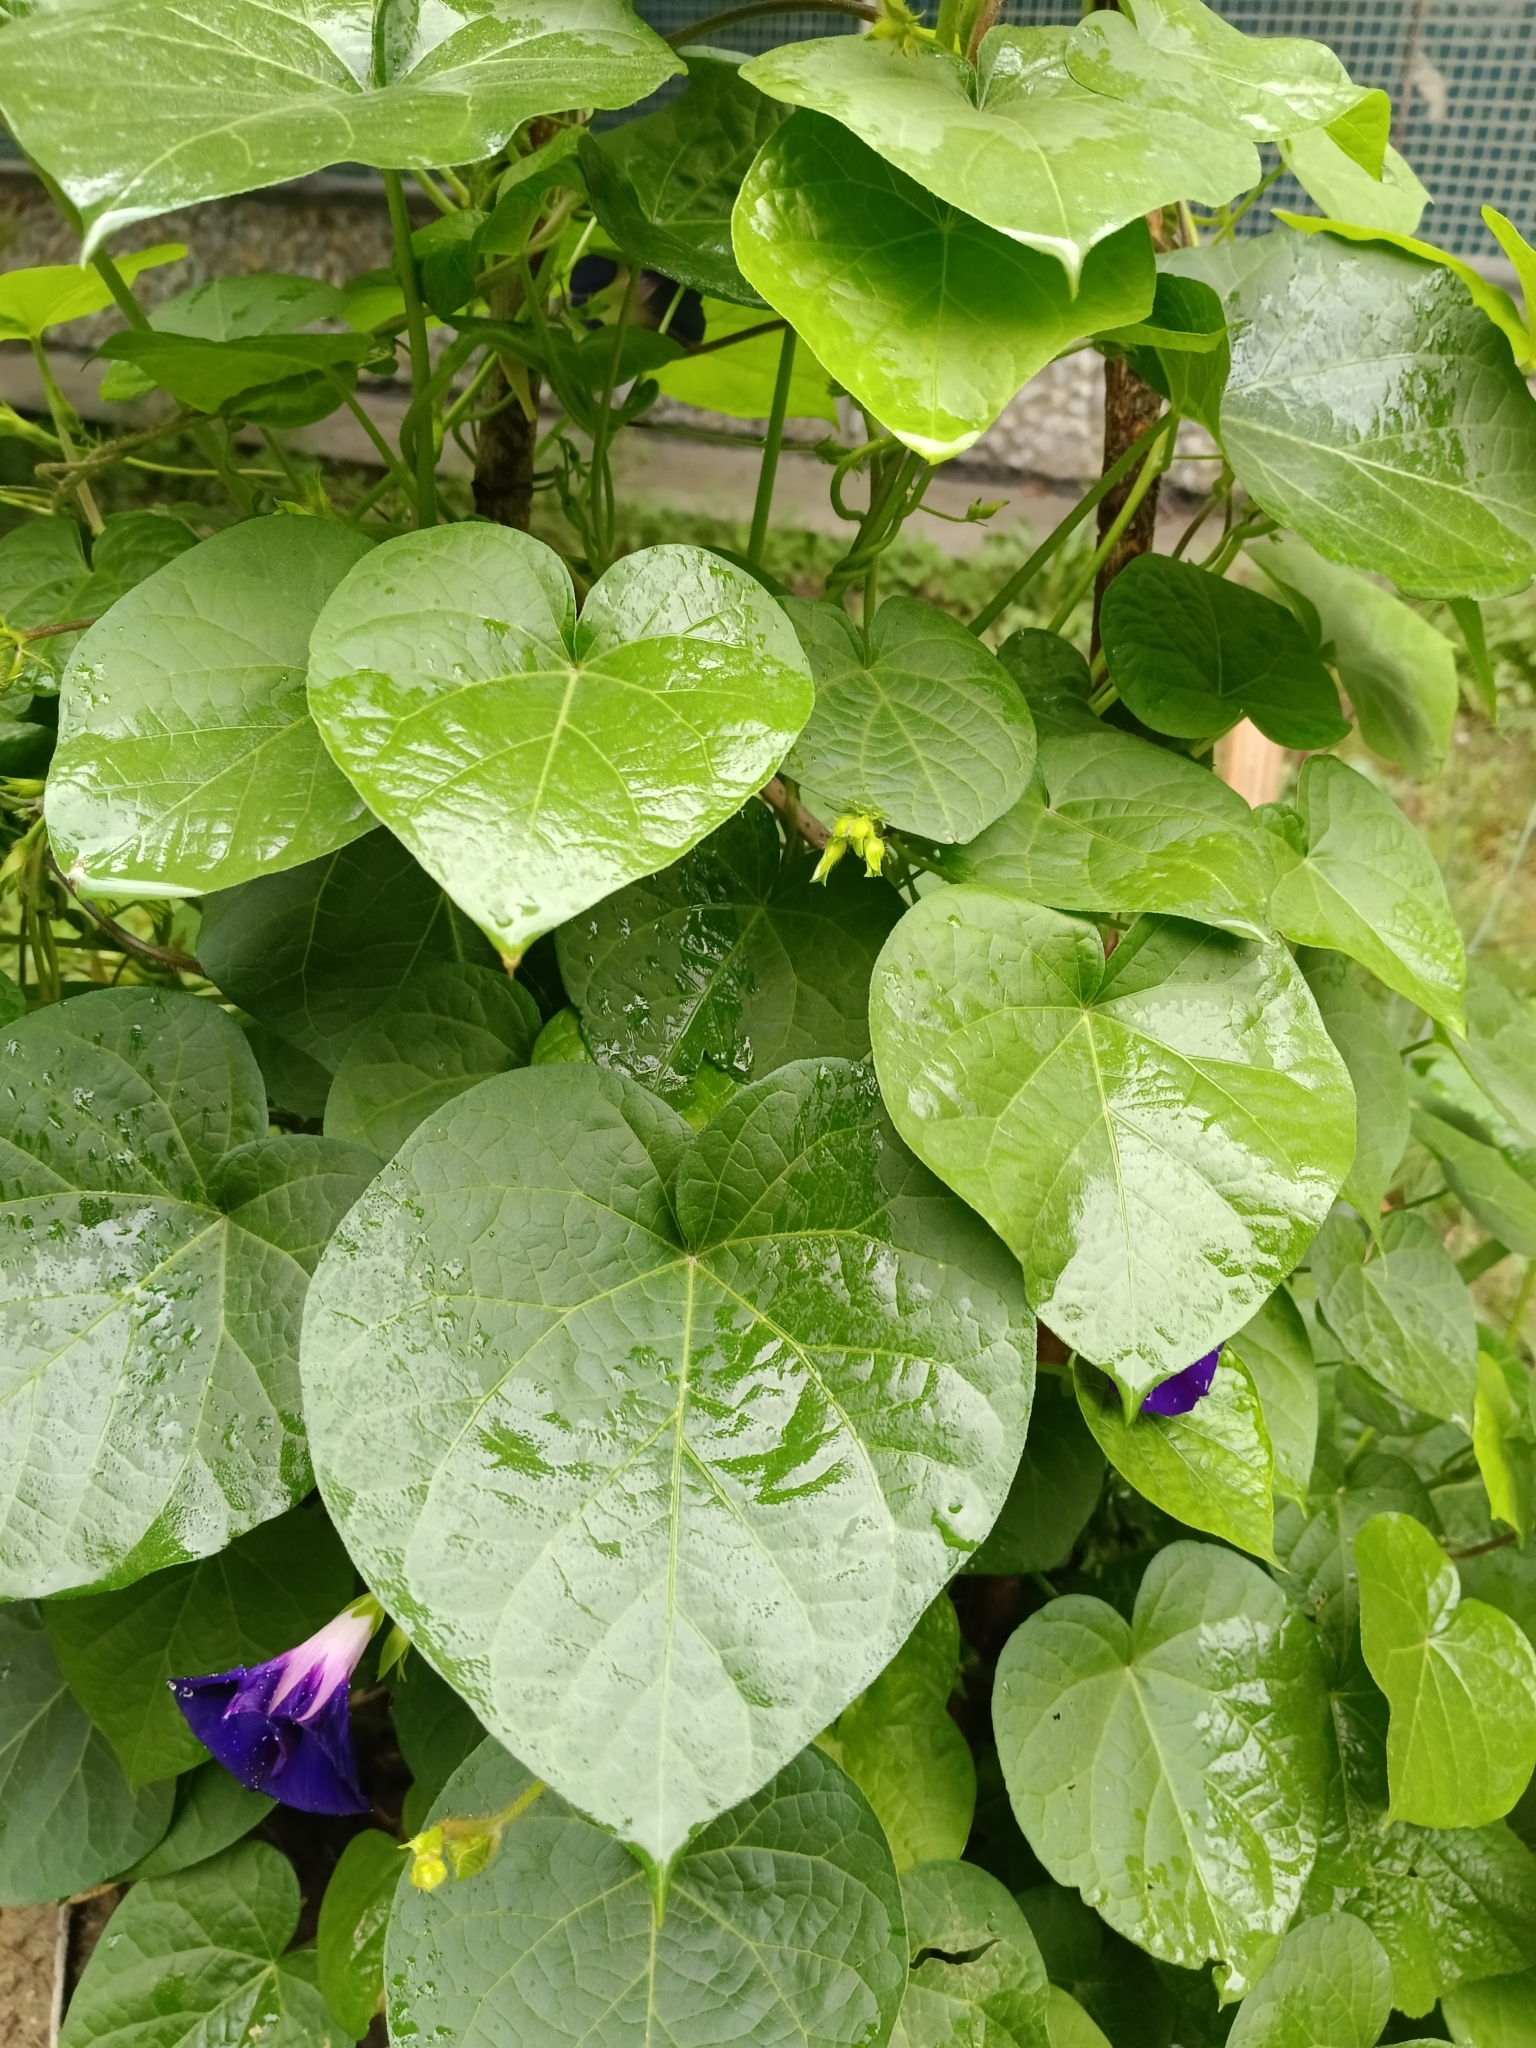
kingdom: Plantae
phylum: Tracheophyta
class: Magnoliopsida
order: Solanales
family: Convolvulaceae
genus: Ipomoea
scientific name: Ipomoea purpurea
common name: Common morning-glory
